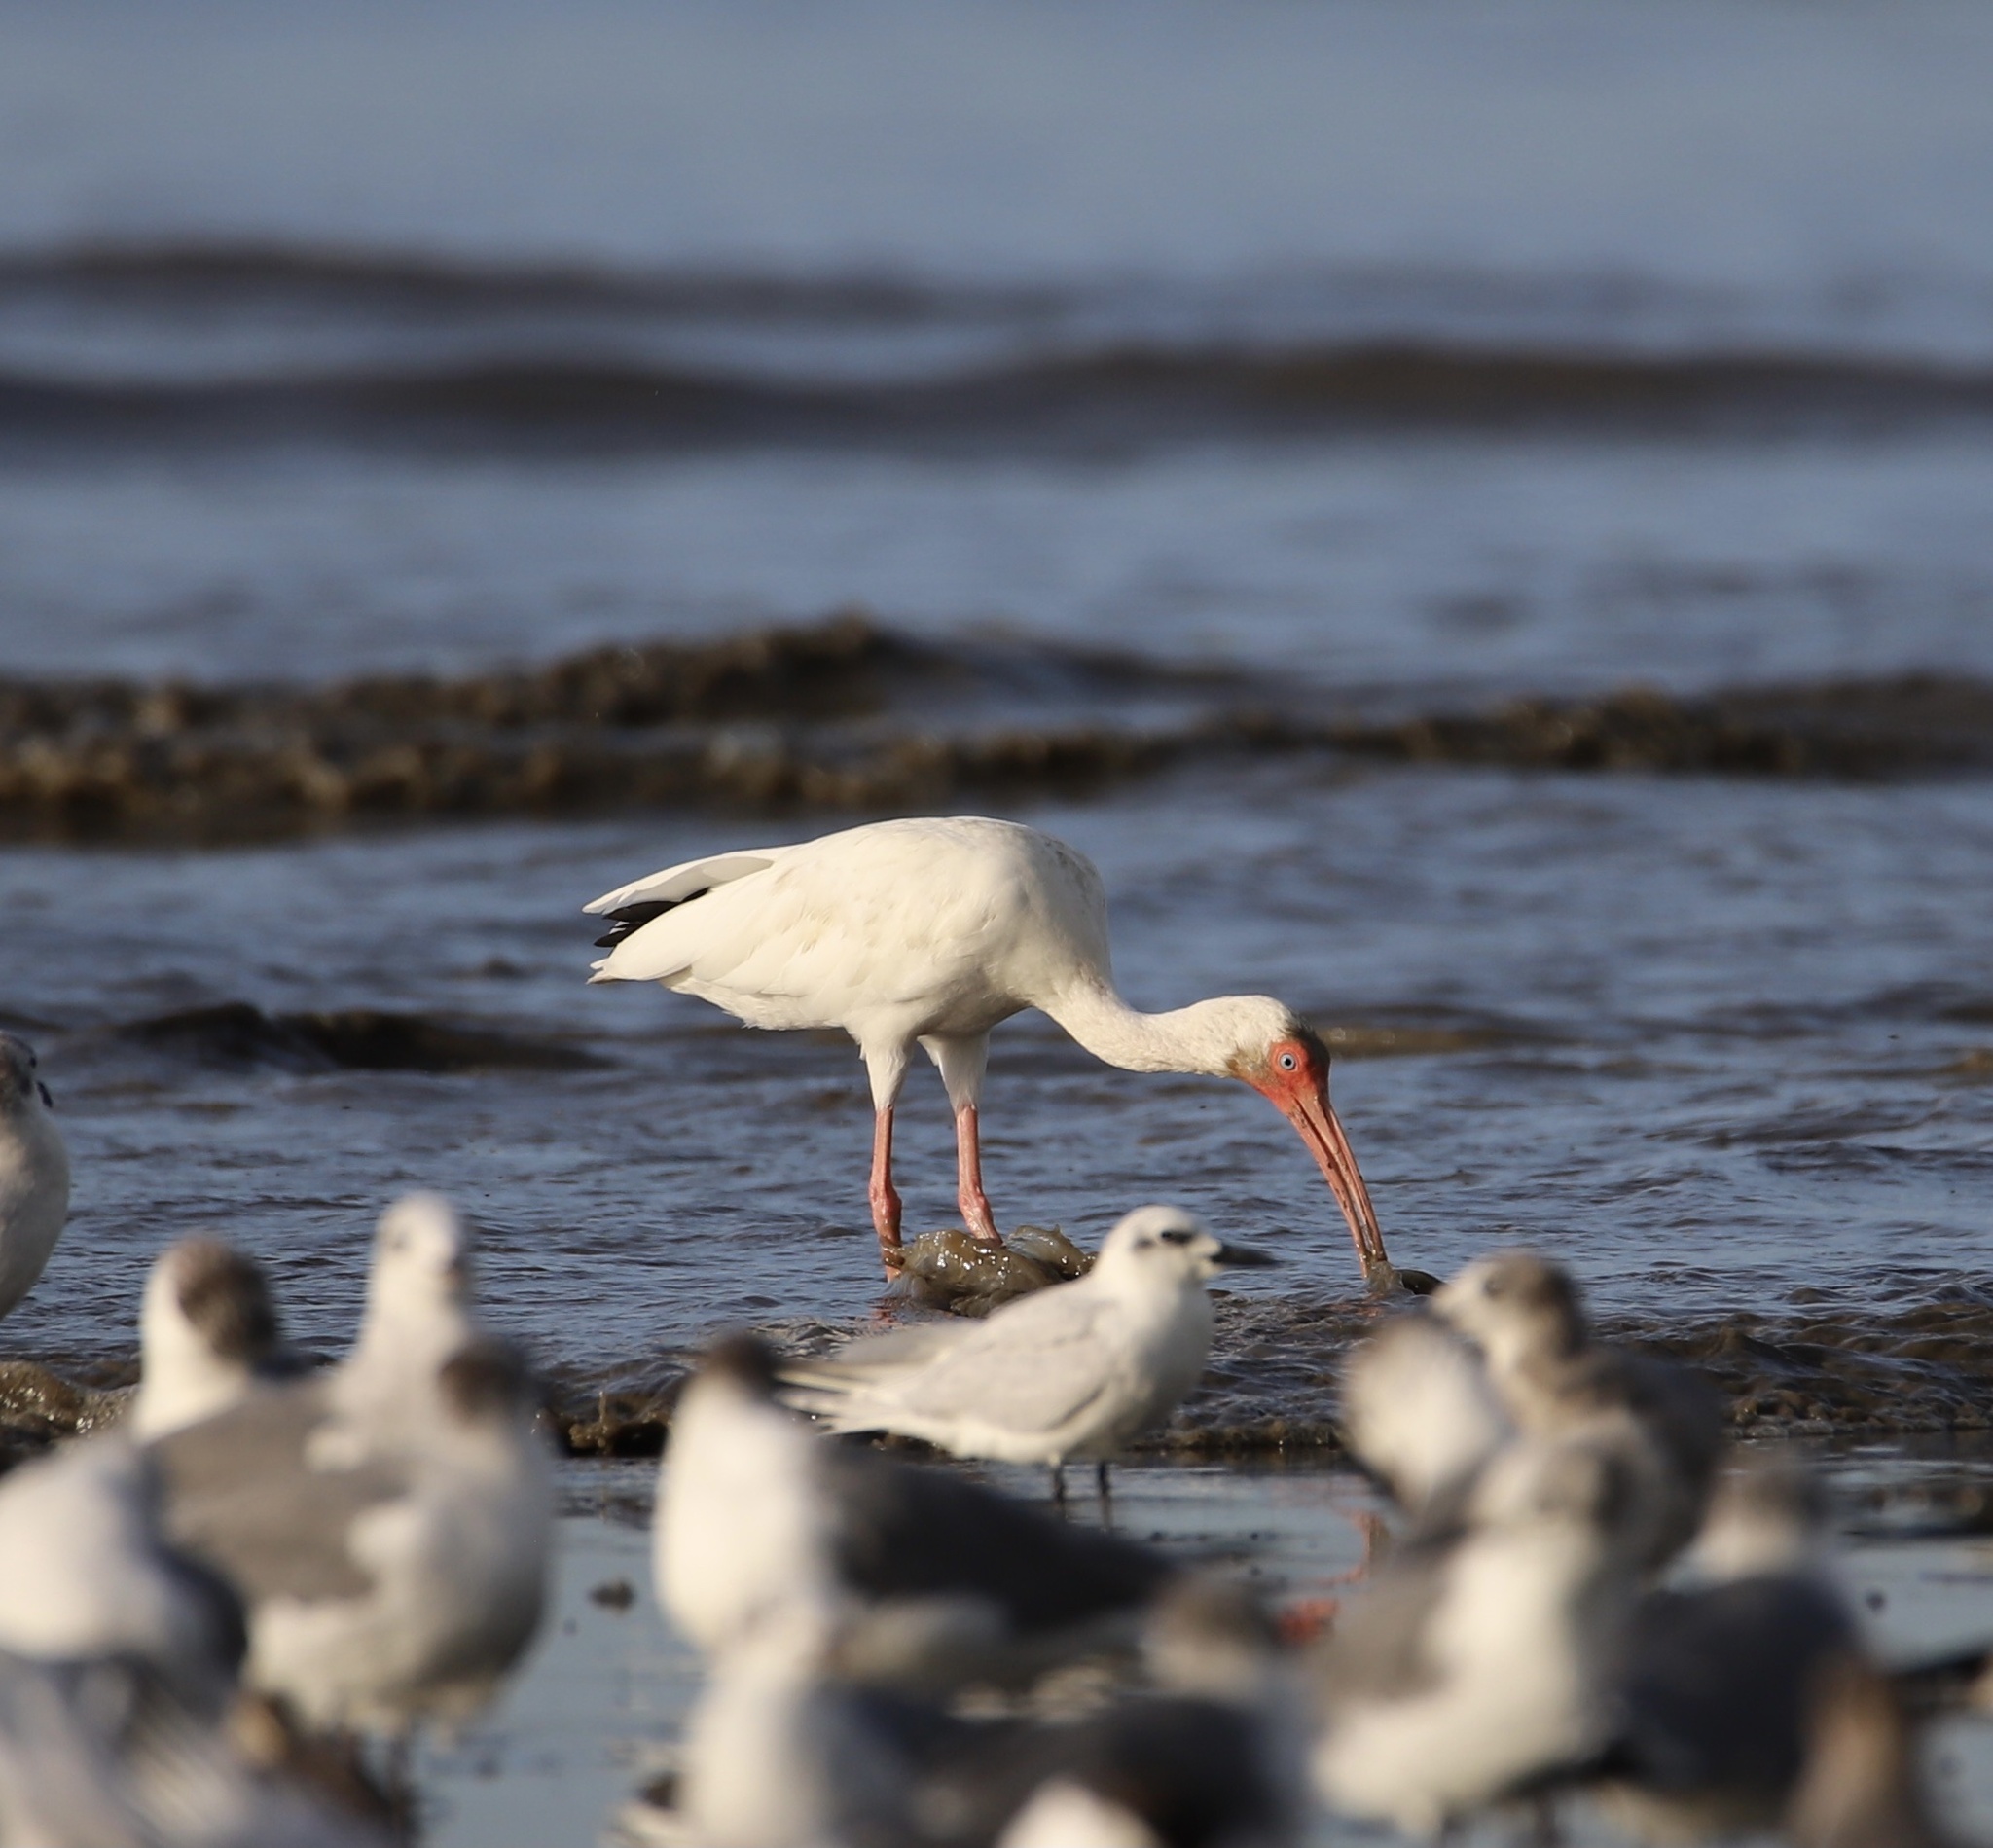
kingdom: Animalia
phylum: Chordata
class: Aves
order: Pelecaniformes
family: Threskiornithidae
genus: Eudocimus
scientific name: Eudocimus albus
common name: White ibis
